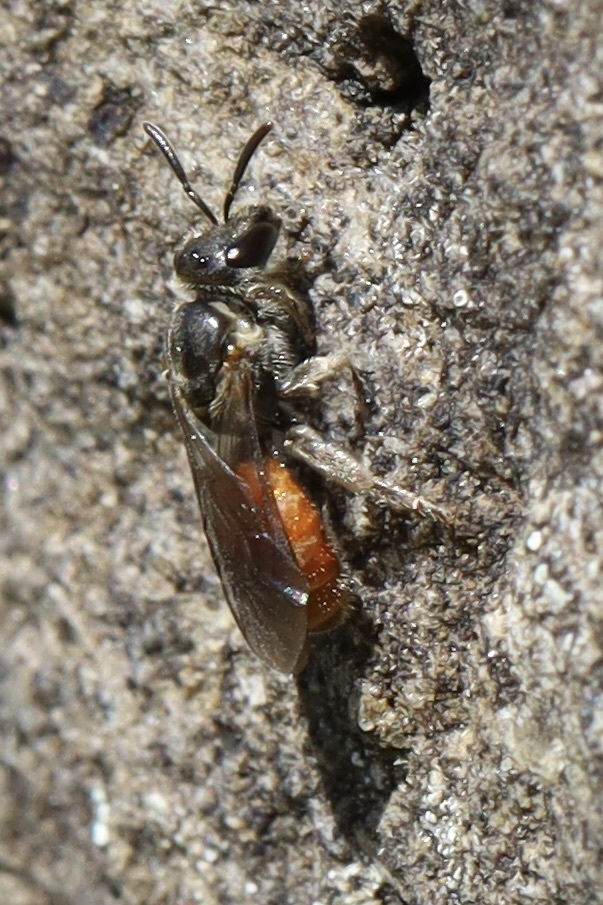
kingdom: Animalia
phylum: Arthropoda
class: Insecta
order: Hymenoptera
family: Halictidae
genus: Lasioglossum
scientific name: Lasioglossum ovaliceps
